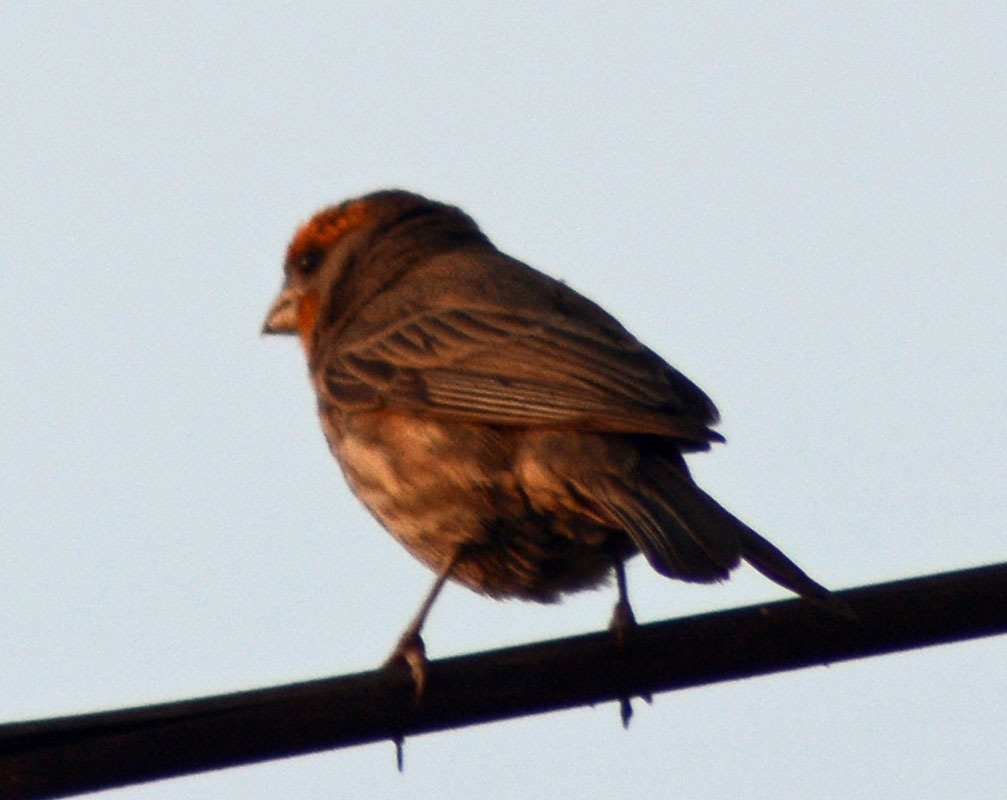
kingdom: Animalia
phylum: Chordata
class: Aves
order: Passeriformes
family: Fringillidae
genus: Haemorhous
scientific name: Haemorhous mexicanus
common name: House finch
